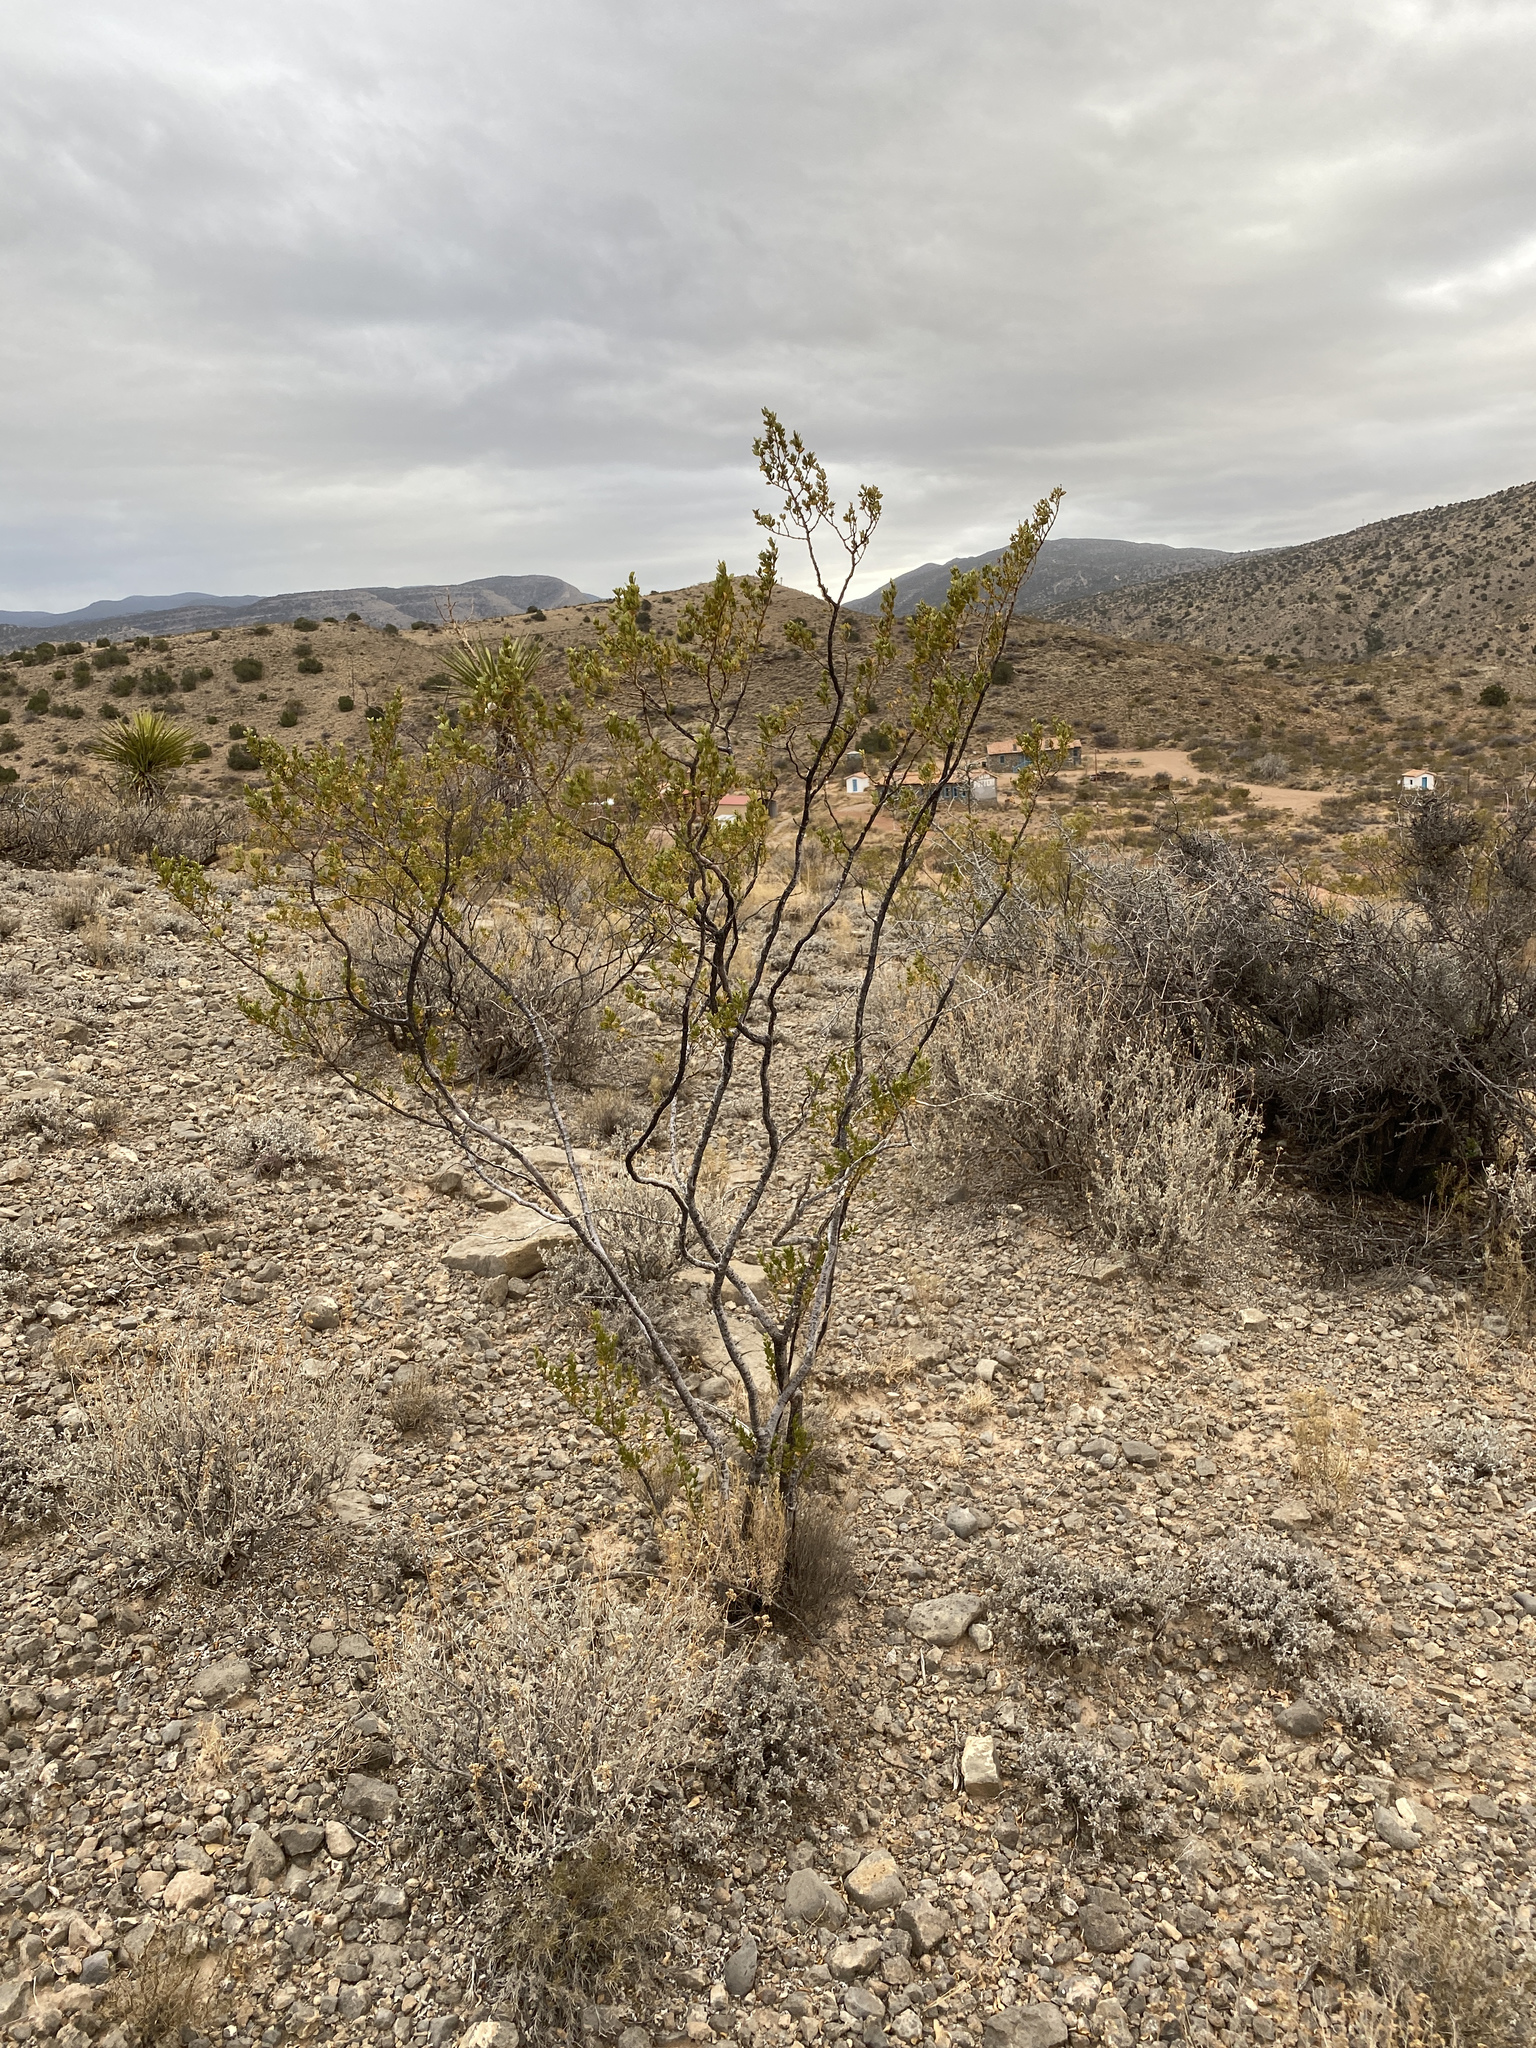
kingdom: Plantae
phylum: Tracheophyta
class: Magnoliopsida
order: Zygophyllales
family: Zygophyllaceae
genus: Larrea
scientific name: Larrea tridentata
